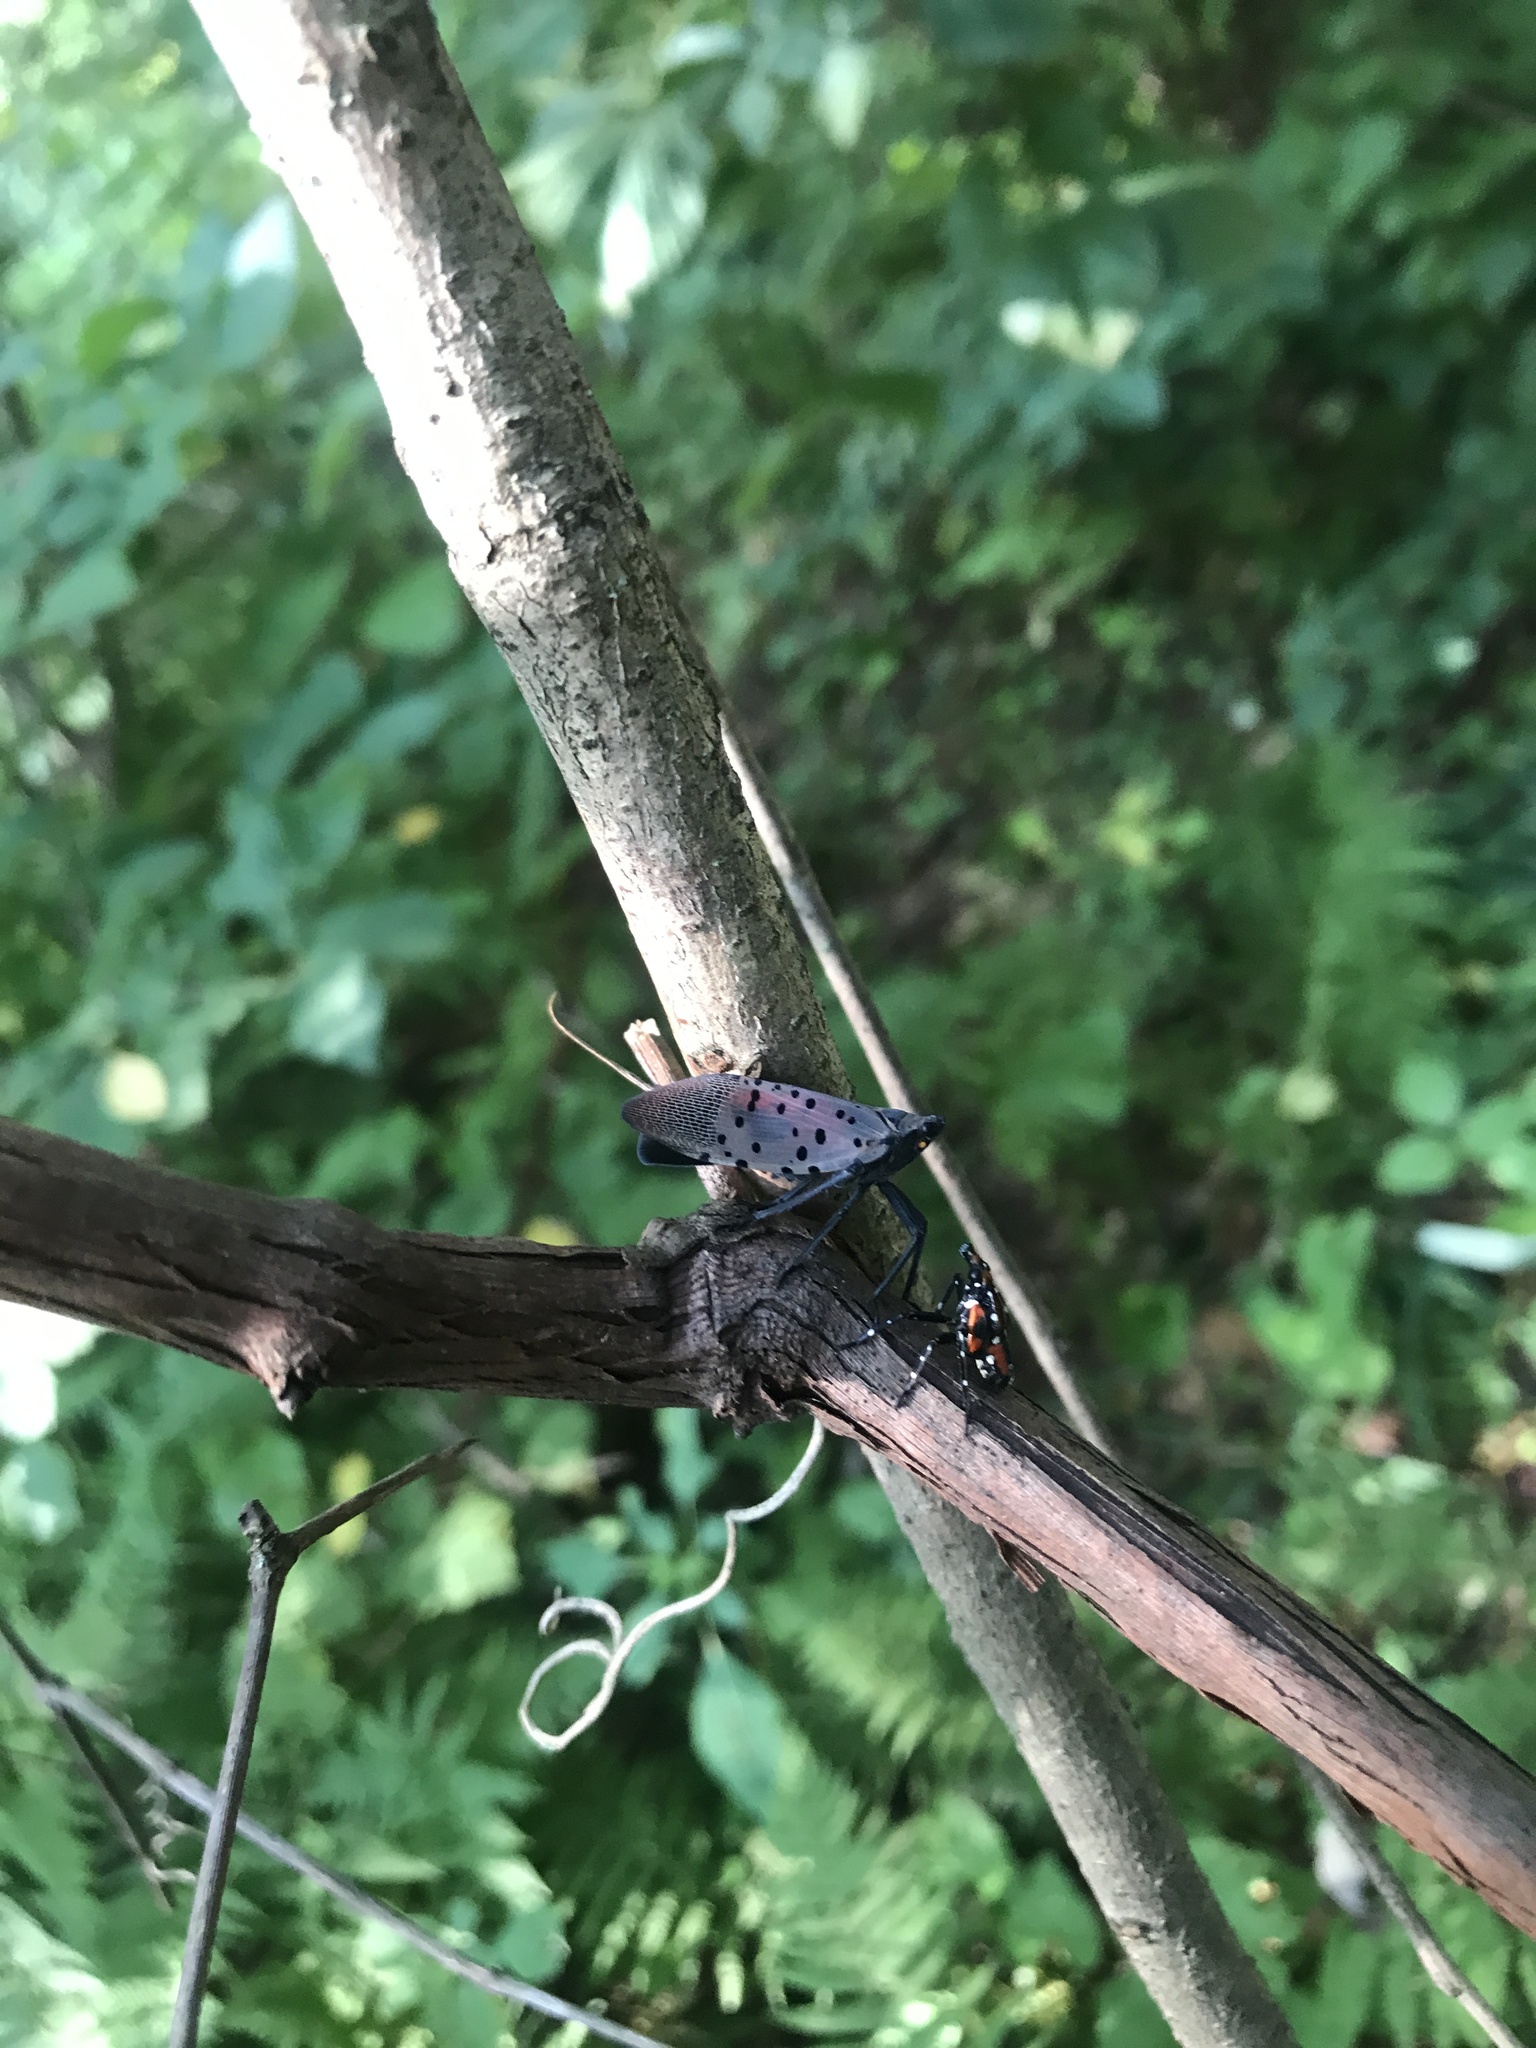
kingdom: Animalia
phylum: Arthropoda
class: Insecta
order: Hemiptera
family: Fulgoridae
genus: Lycorma
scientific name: Lycorma delicatula
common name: Spotted lanternfly
